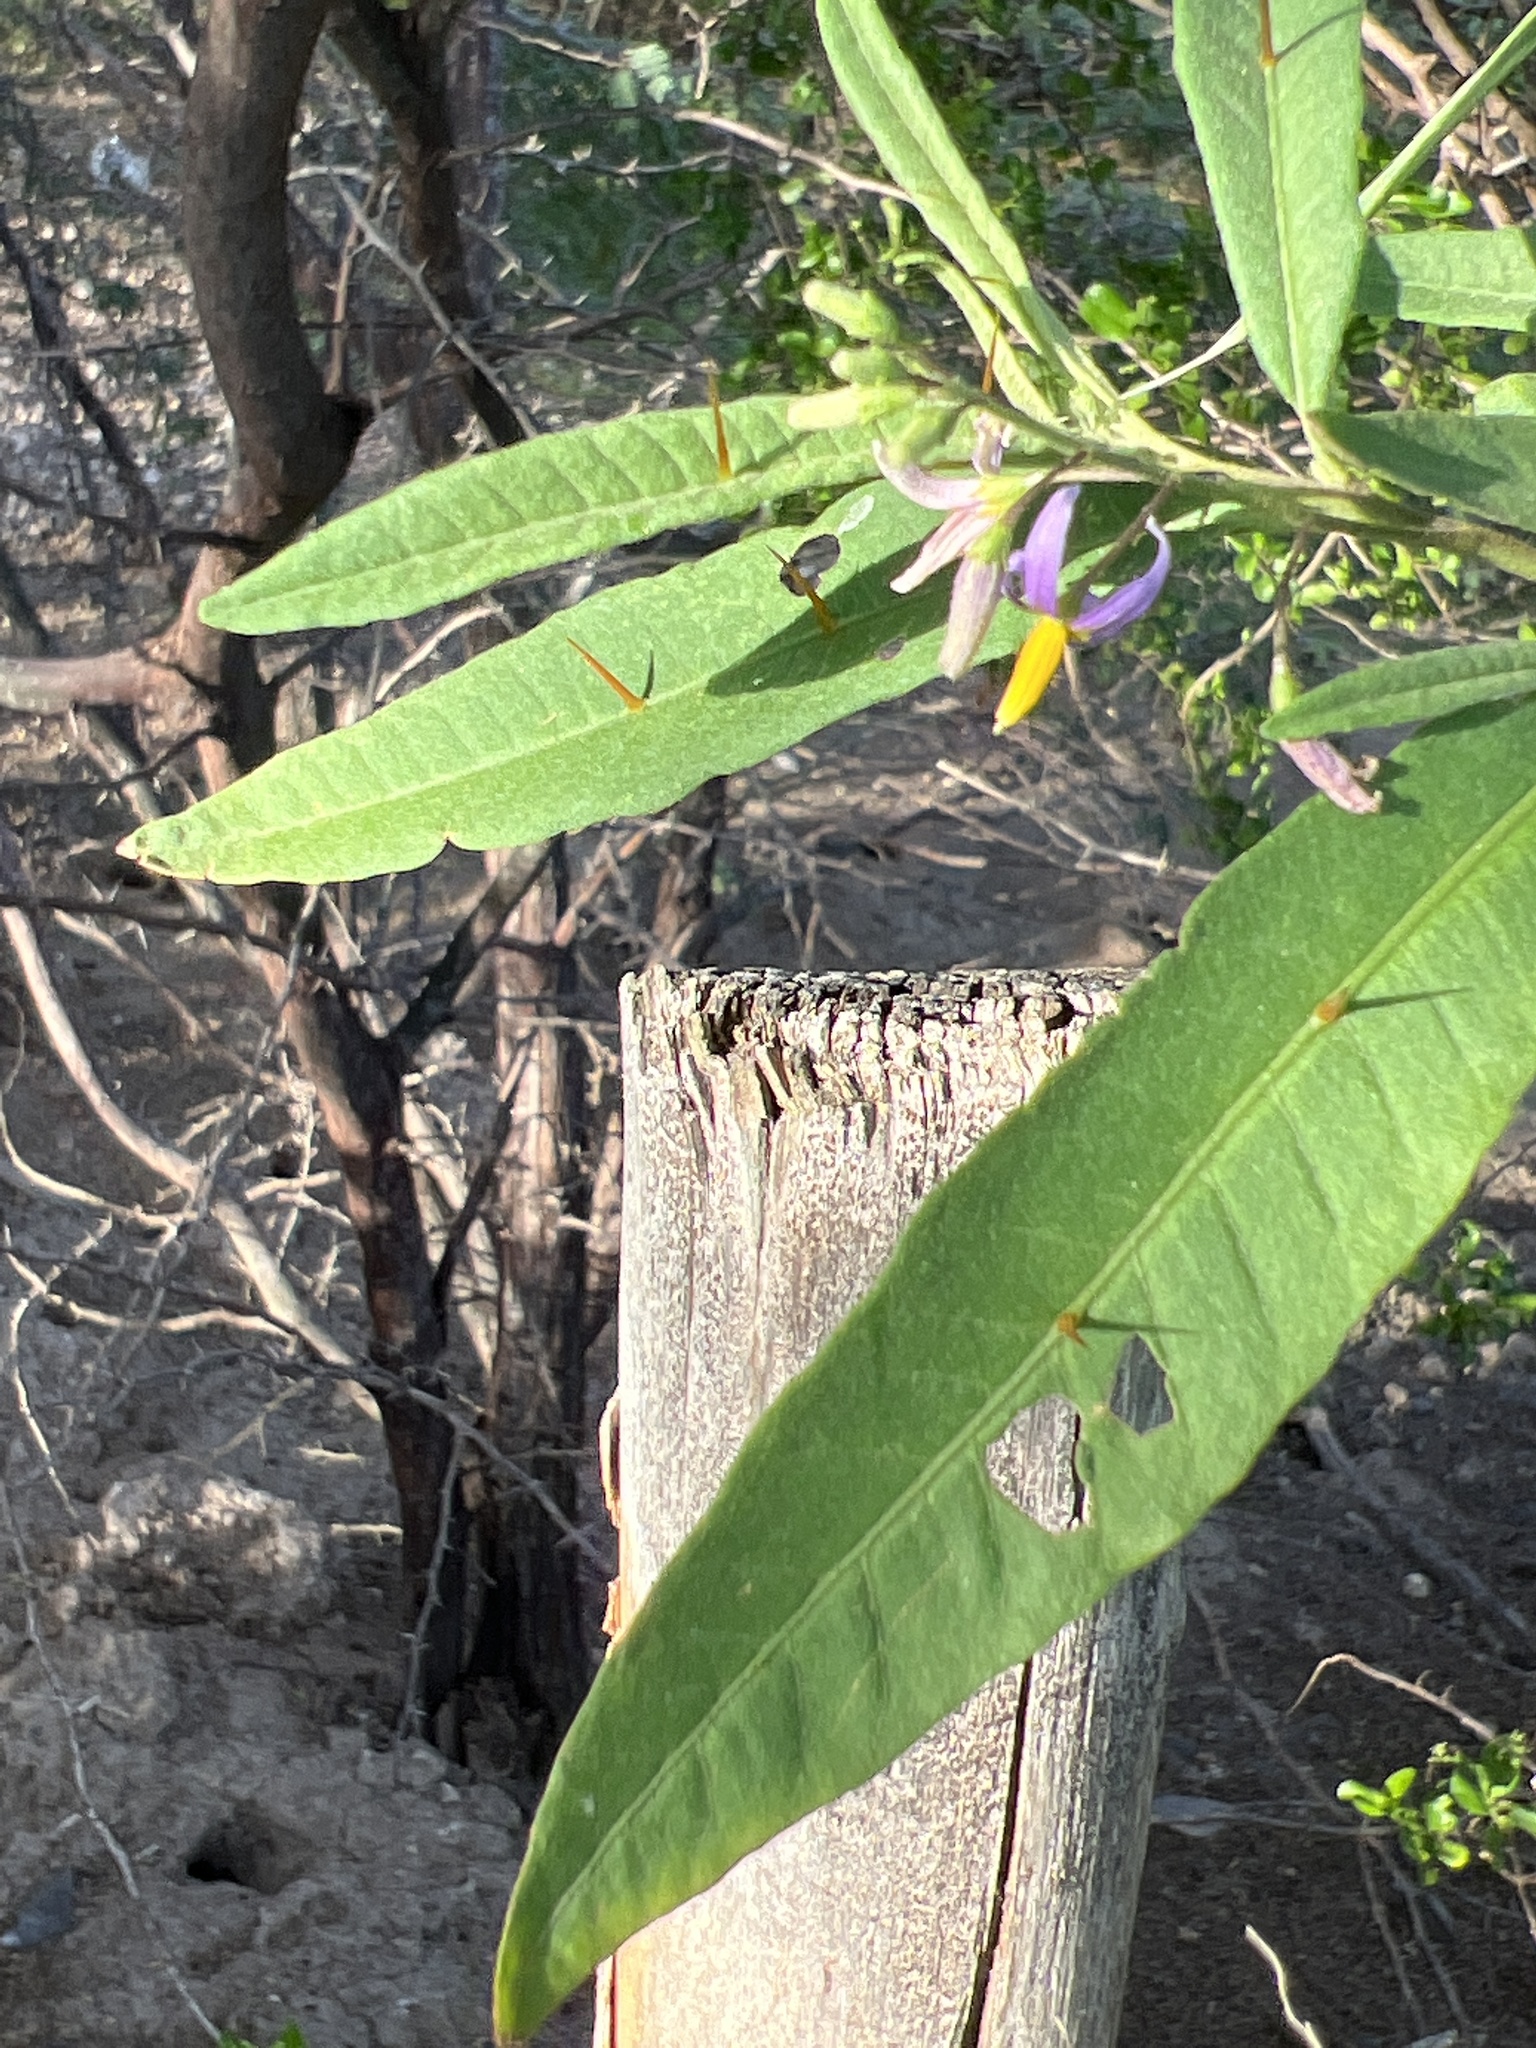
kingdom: Plantae
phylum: Tracheophyta
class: Magnoliopsida
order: Solanales
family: Solanaceae
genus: Solanum
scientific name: Solanum bahamense
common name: Canker-berry
